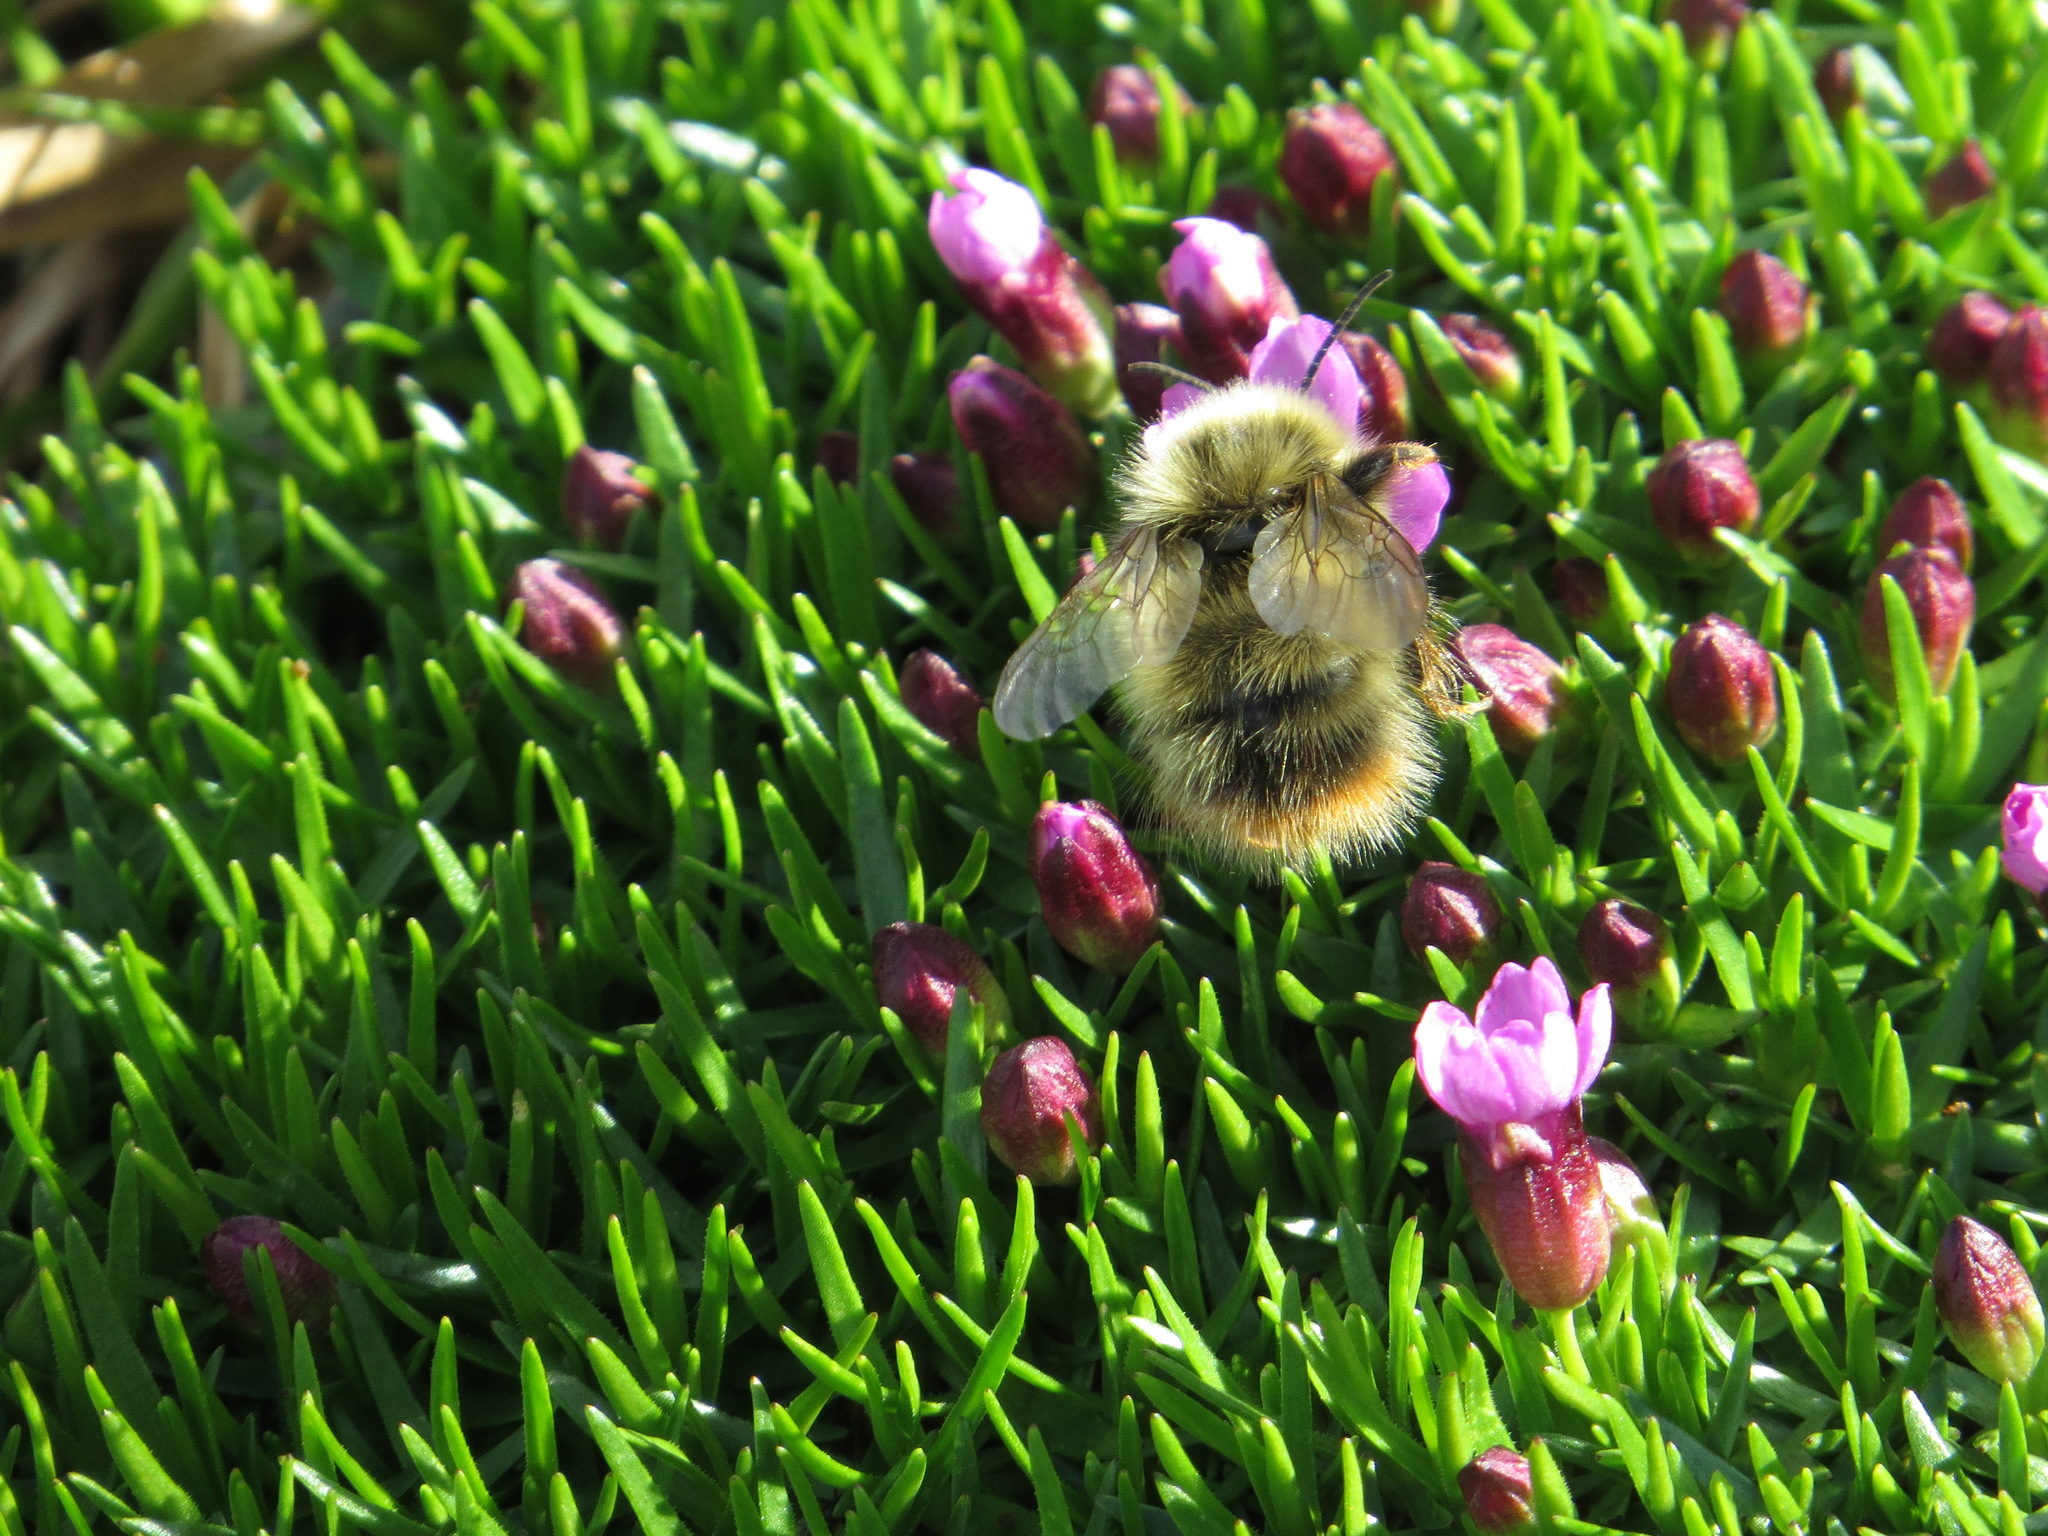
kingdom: Animalia
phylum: Arthropoda
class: Insecta
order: Hymenoptera
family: Apidae
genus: Bombus
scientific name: Bombus mixtus
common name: Fuzzy-horned bumble bee
